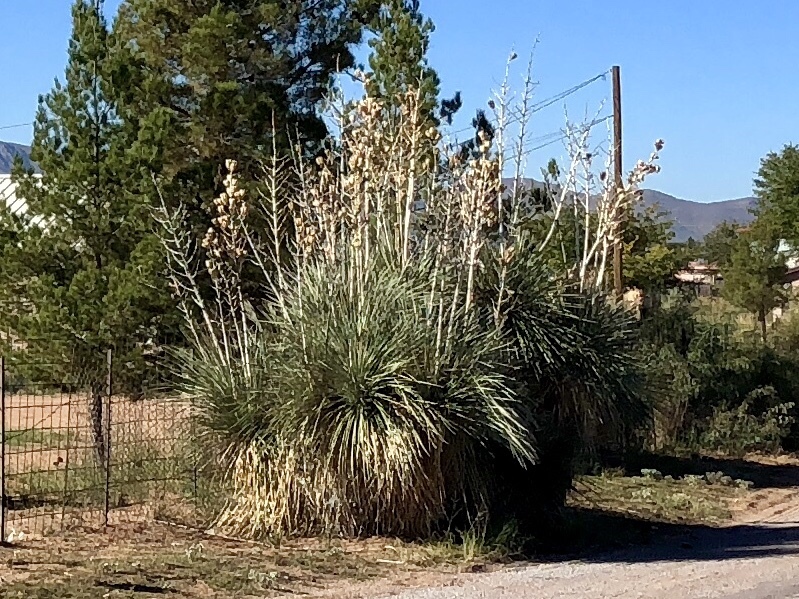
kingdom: Plantae
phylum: Tracheophyta
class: Liliopsida
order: Asparagales
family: Asparagaceae
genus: Yucca
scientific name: Yucca elata
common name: Palmella
